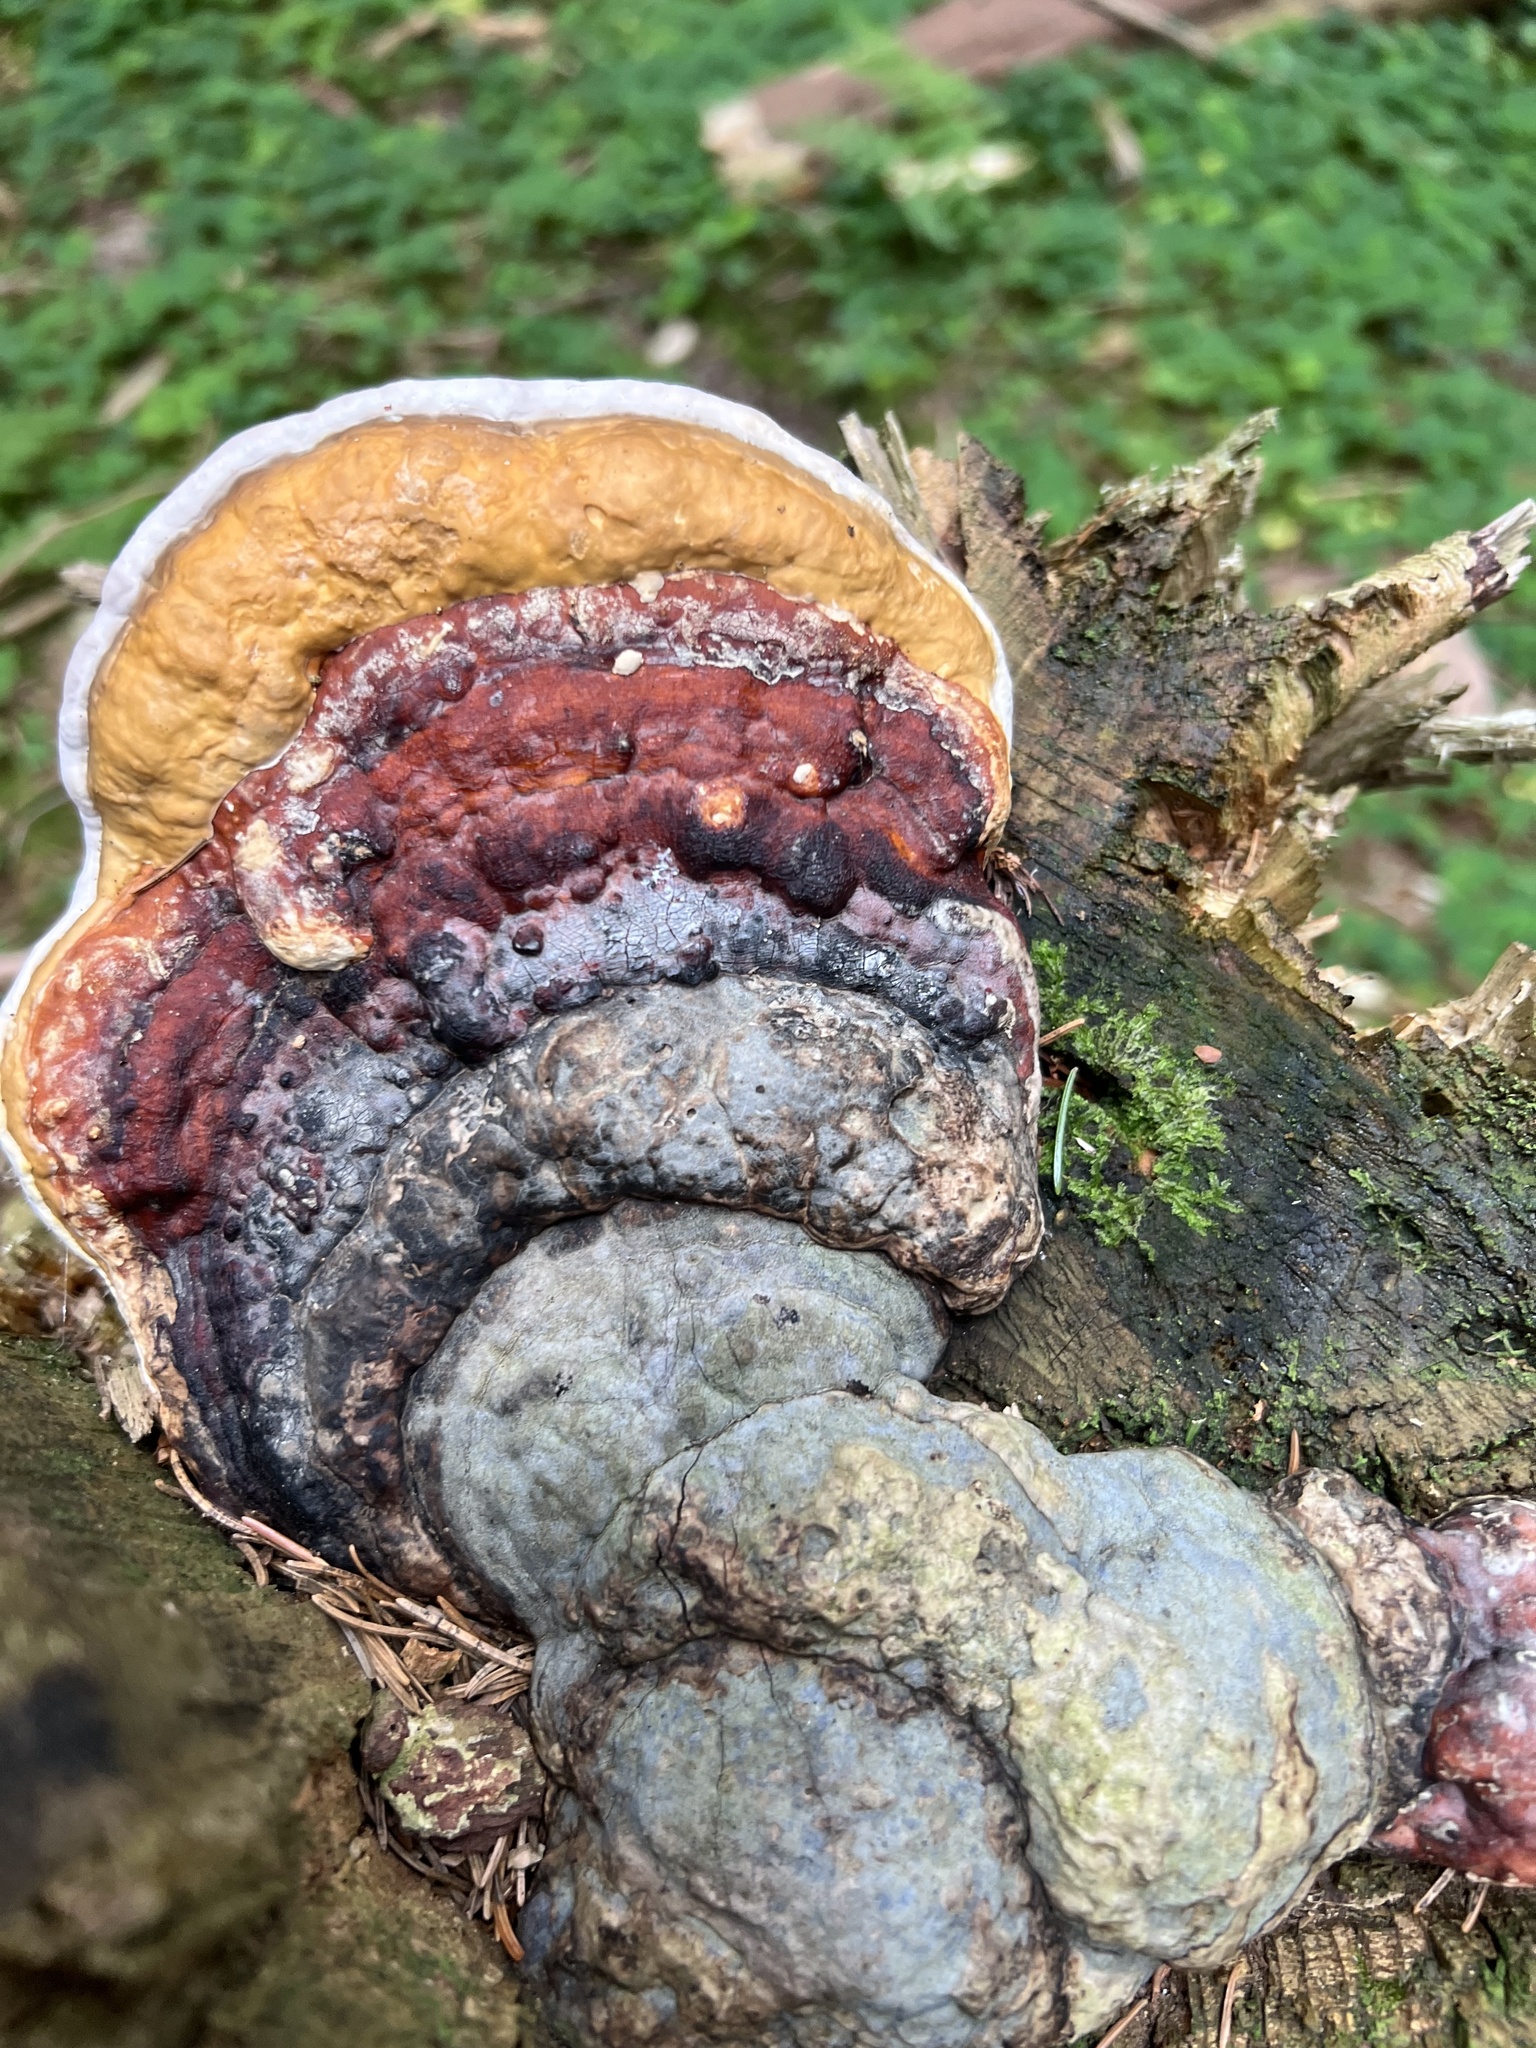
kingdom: Fungi
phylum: Basidiomycota
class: Agaricomycetes
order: Polyporales
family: Fomitopsidaceae
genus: Fomitopsis
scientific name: Fomitopsis pinicola
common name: Red-belted bracket
